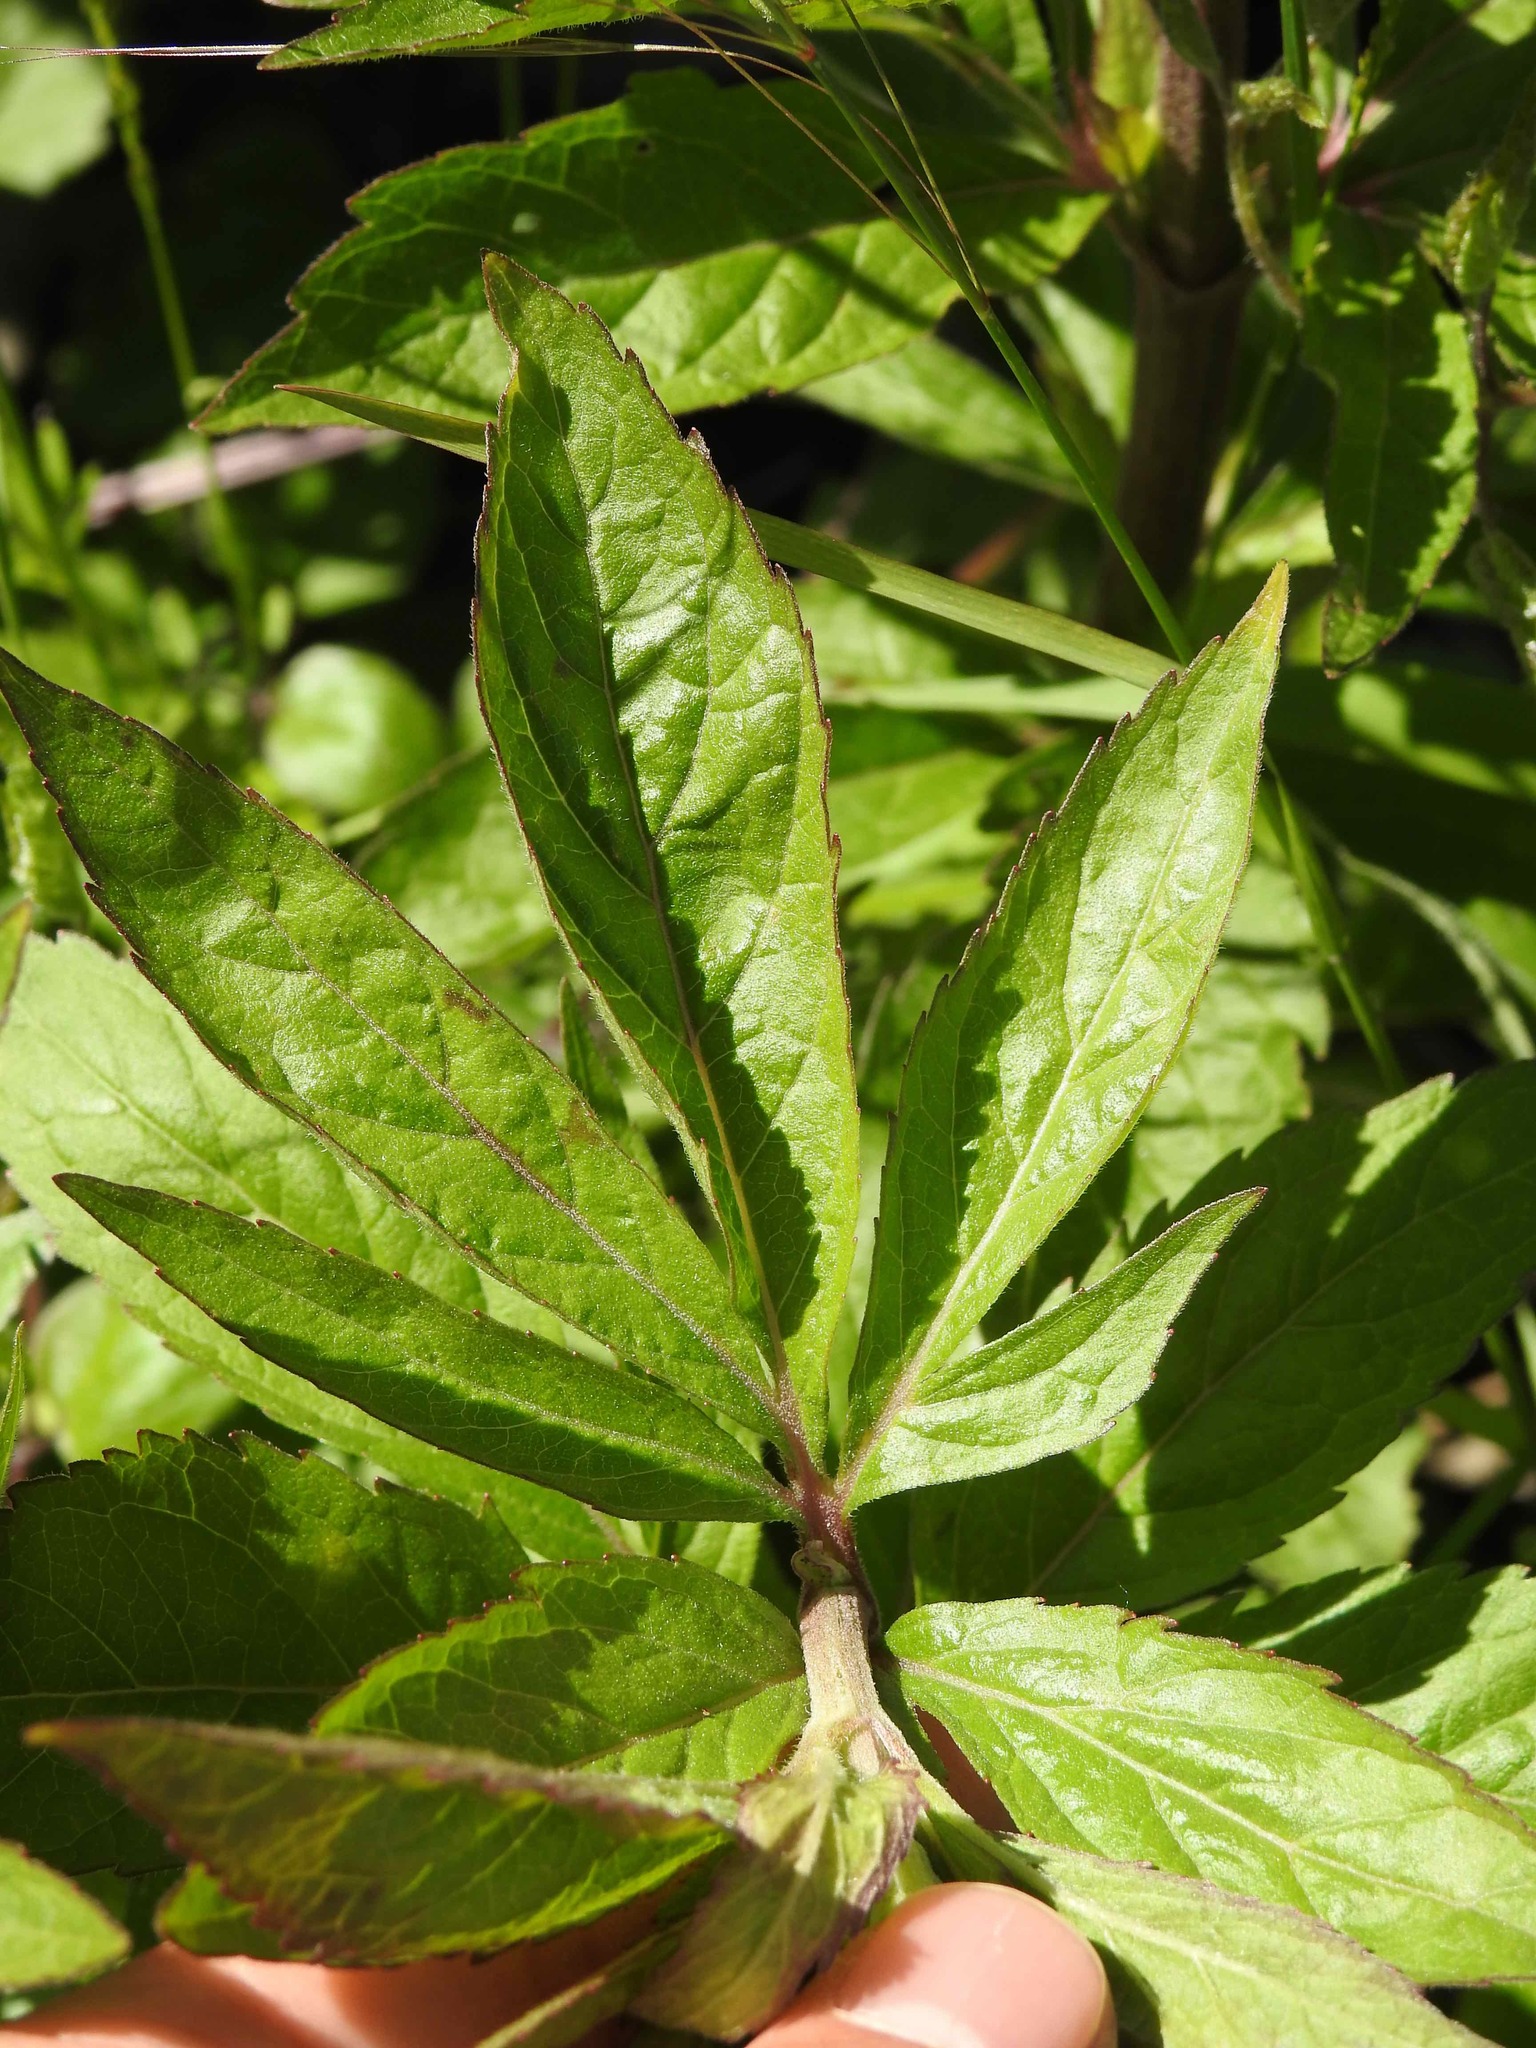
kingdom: Plantae
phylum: Tracheophyta
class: Magnoliopsida
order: Asterales
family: Asteraceae
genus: Eupatorium
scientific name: Eupatorium cannabinum
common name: Hemp-agrimony
